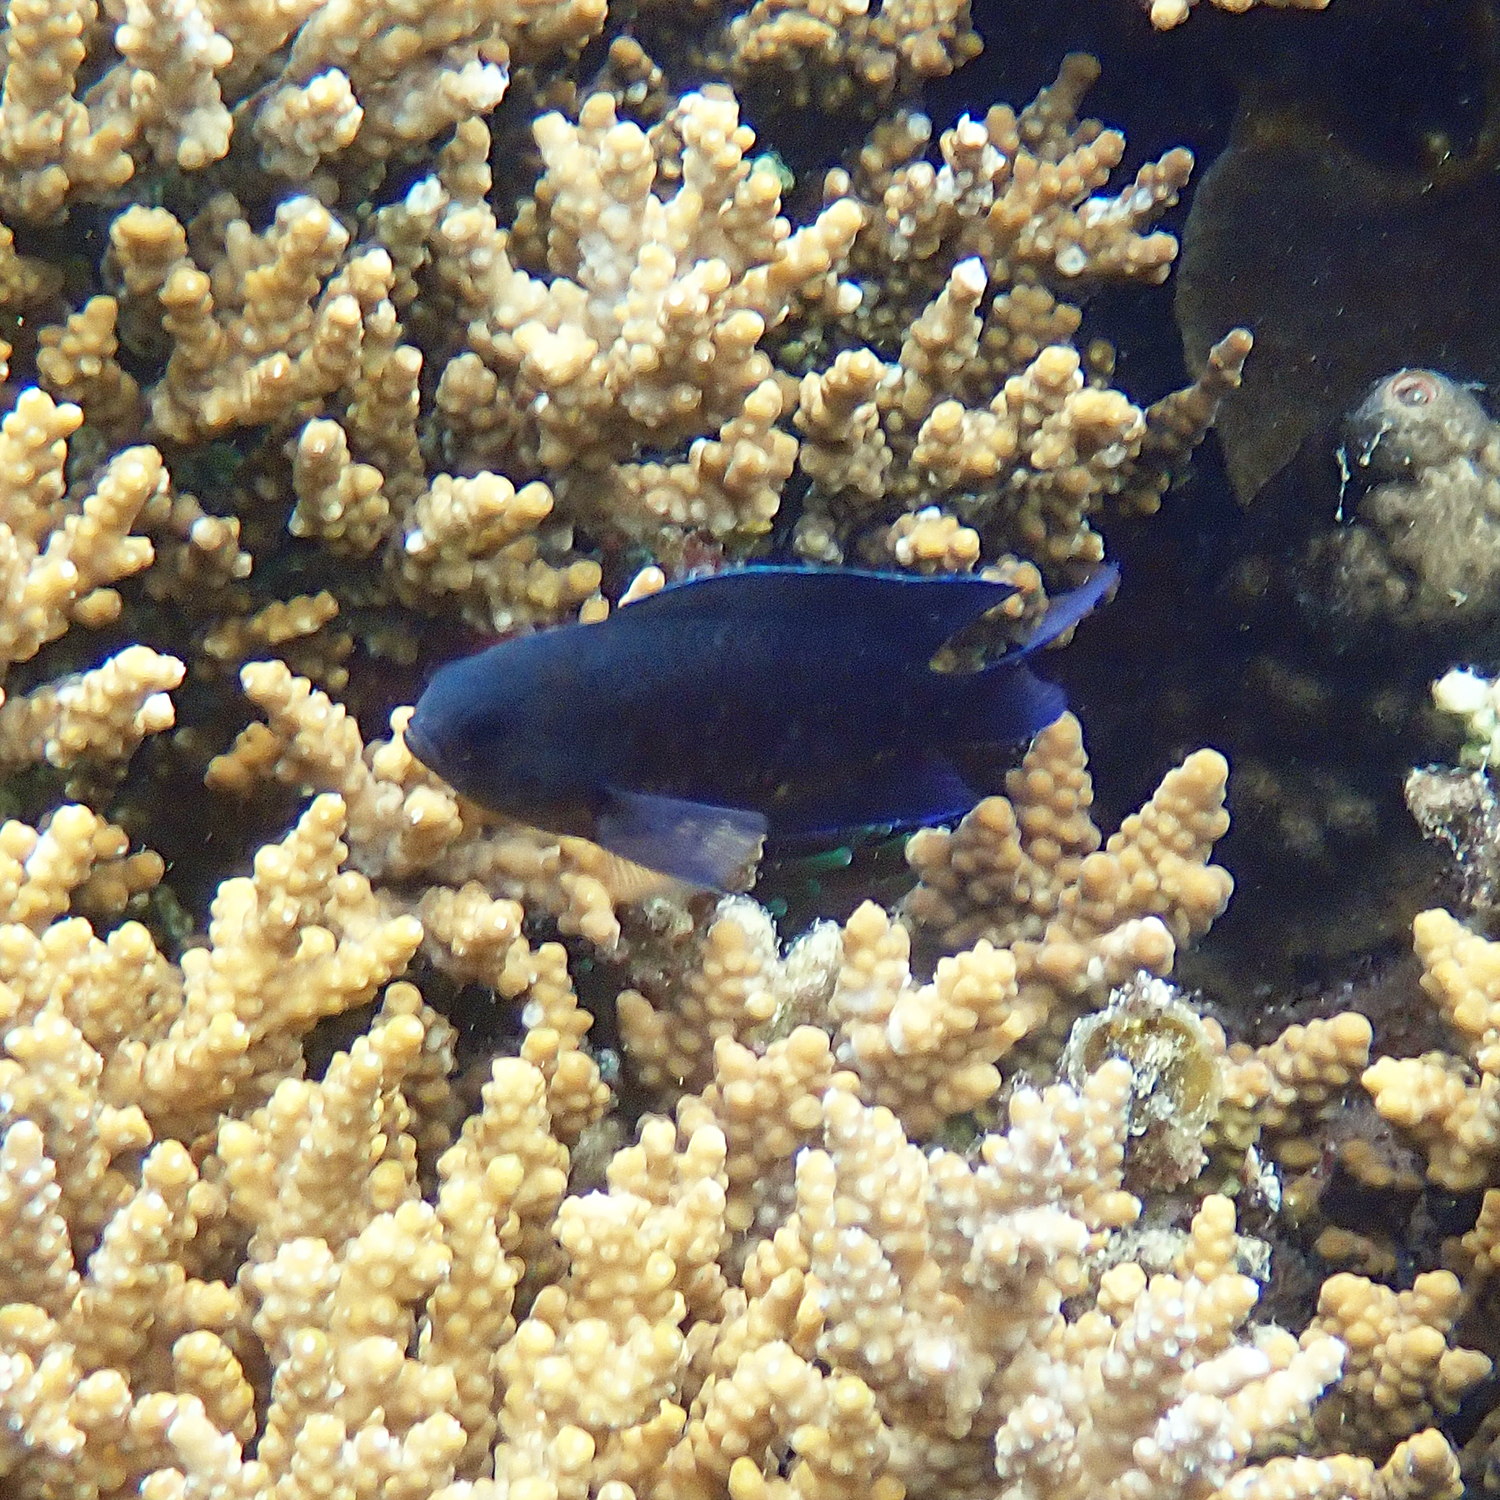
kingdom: Animalia
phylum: Chordata
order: Perciformes
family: Pomacentridae
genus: Chrysiptera
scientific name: Chrysiptera notialis
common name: Southern demoiselle
